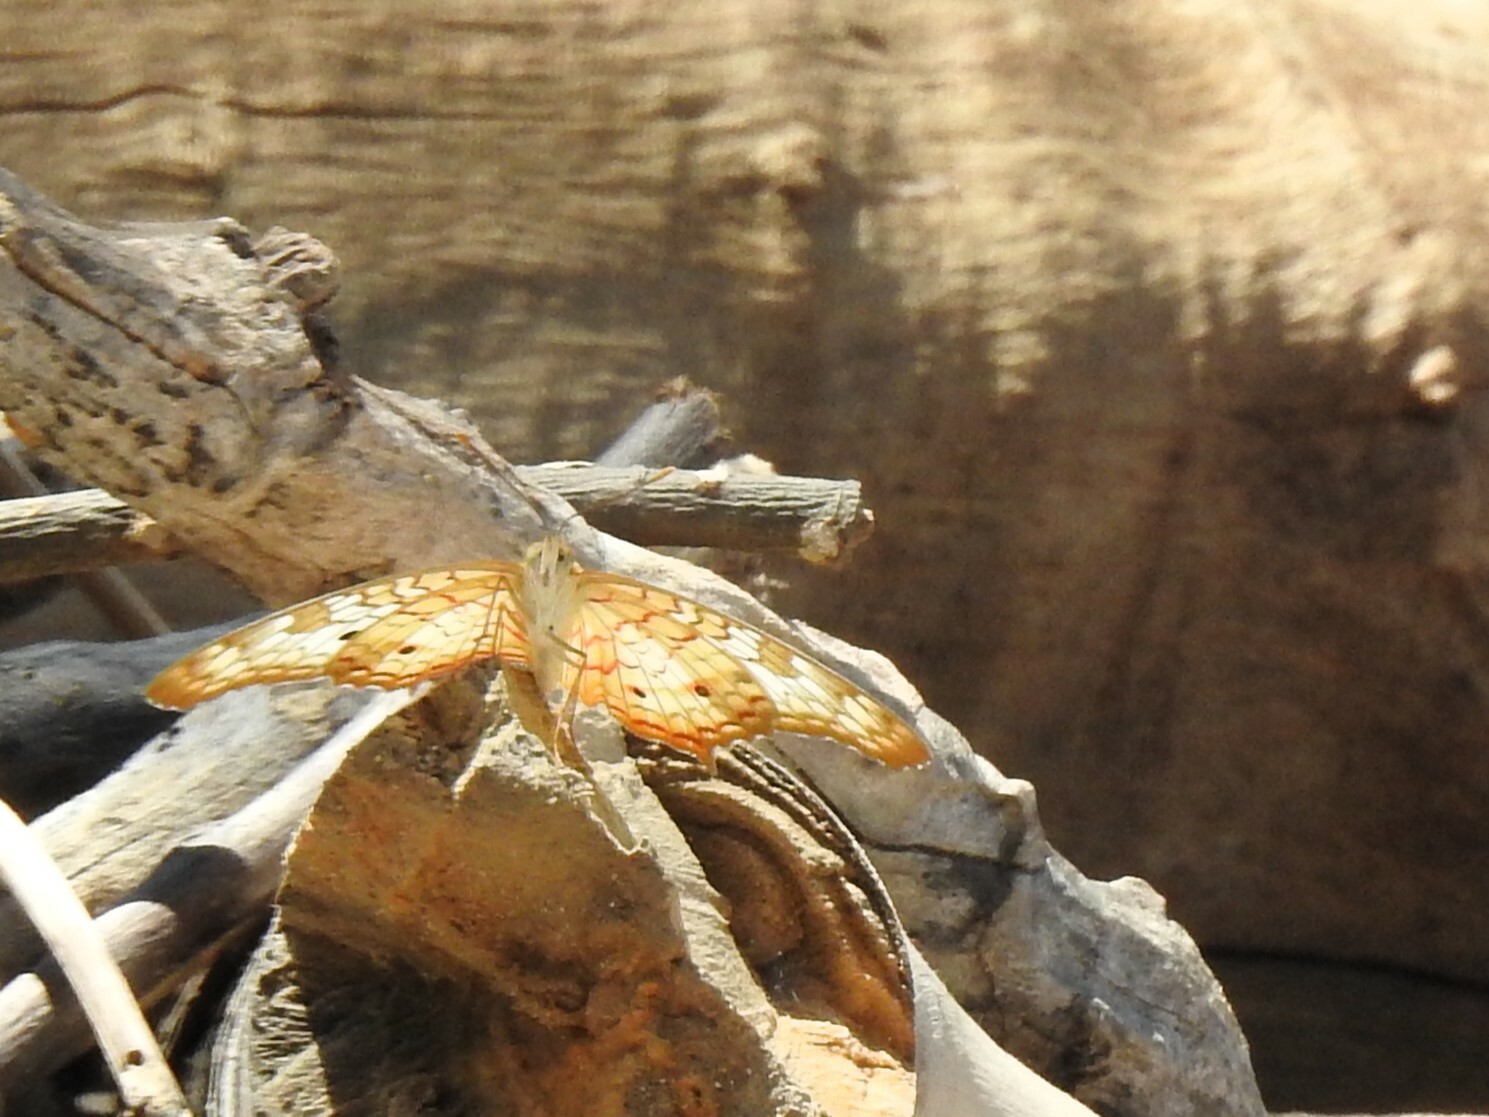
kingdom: Animalia
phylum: Arthropoda
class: Insecta
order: Lepidoptera
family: Nymphalidae
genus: Anartia
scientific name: Anartia jatrophae
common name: White peacock
